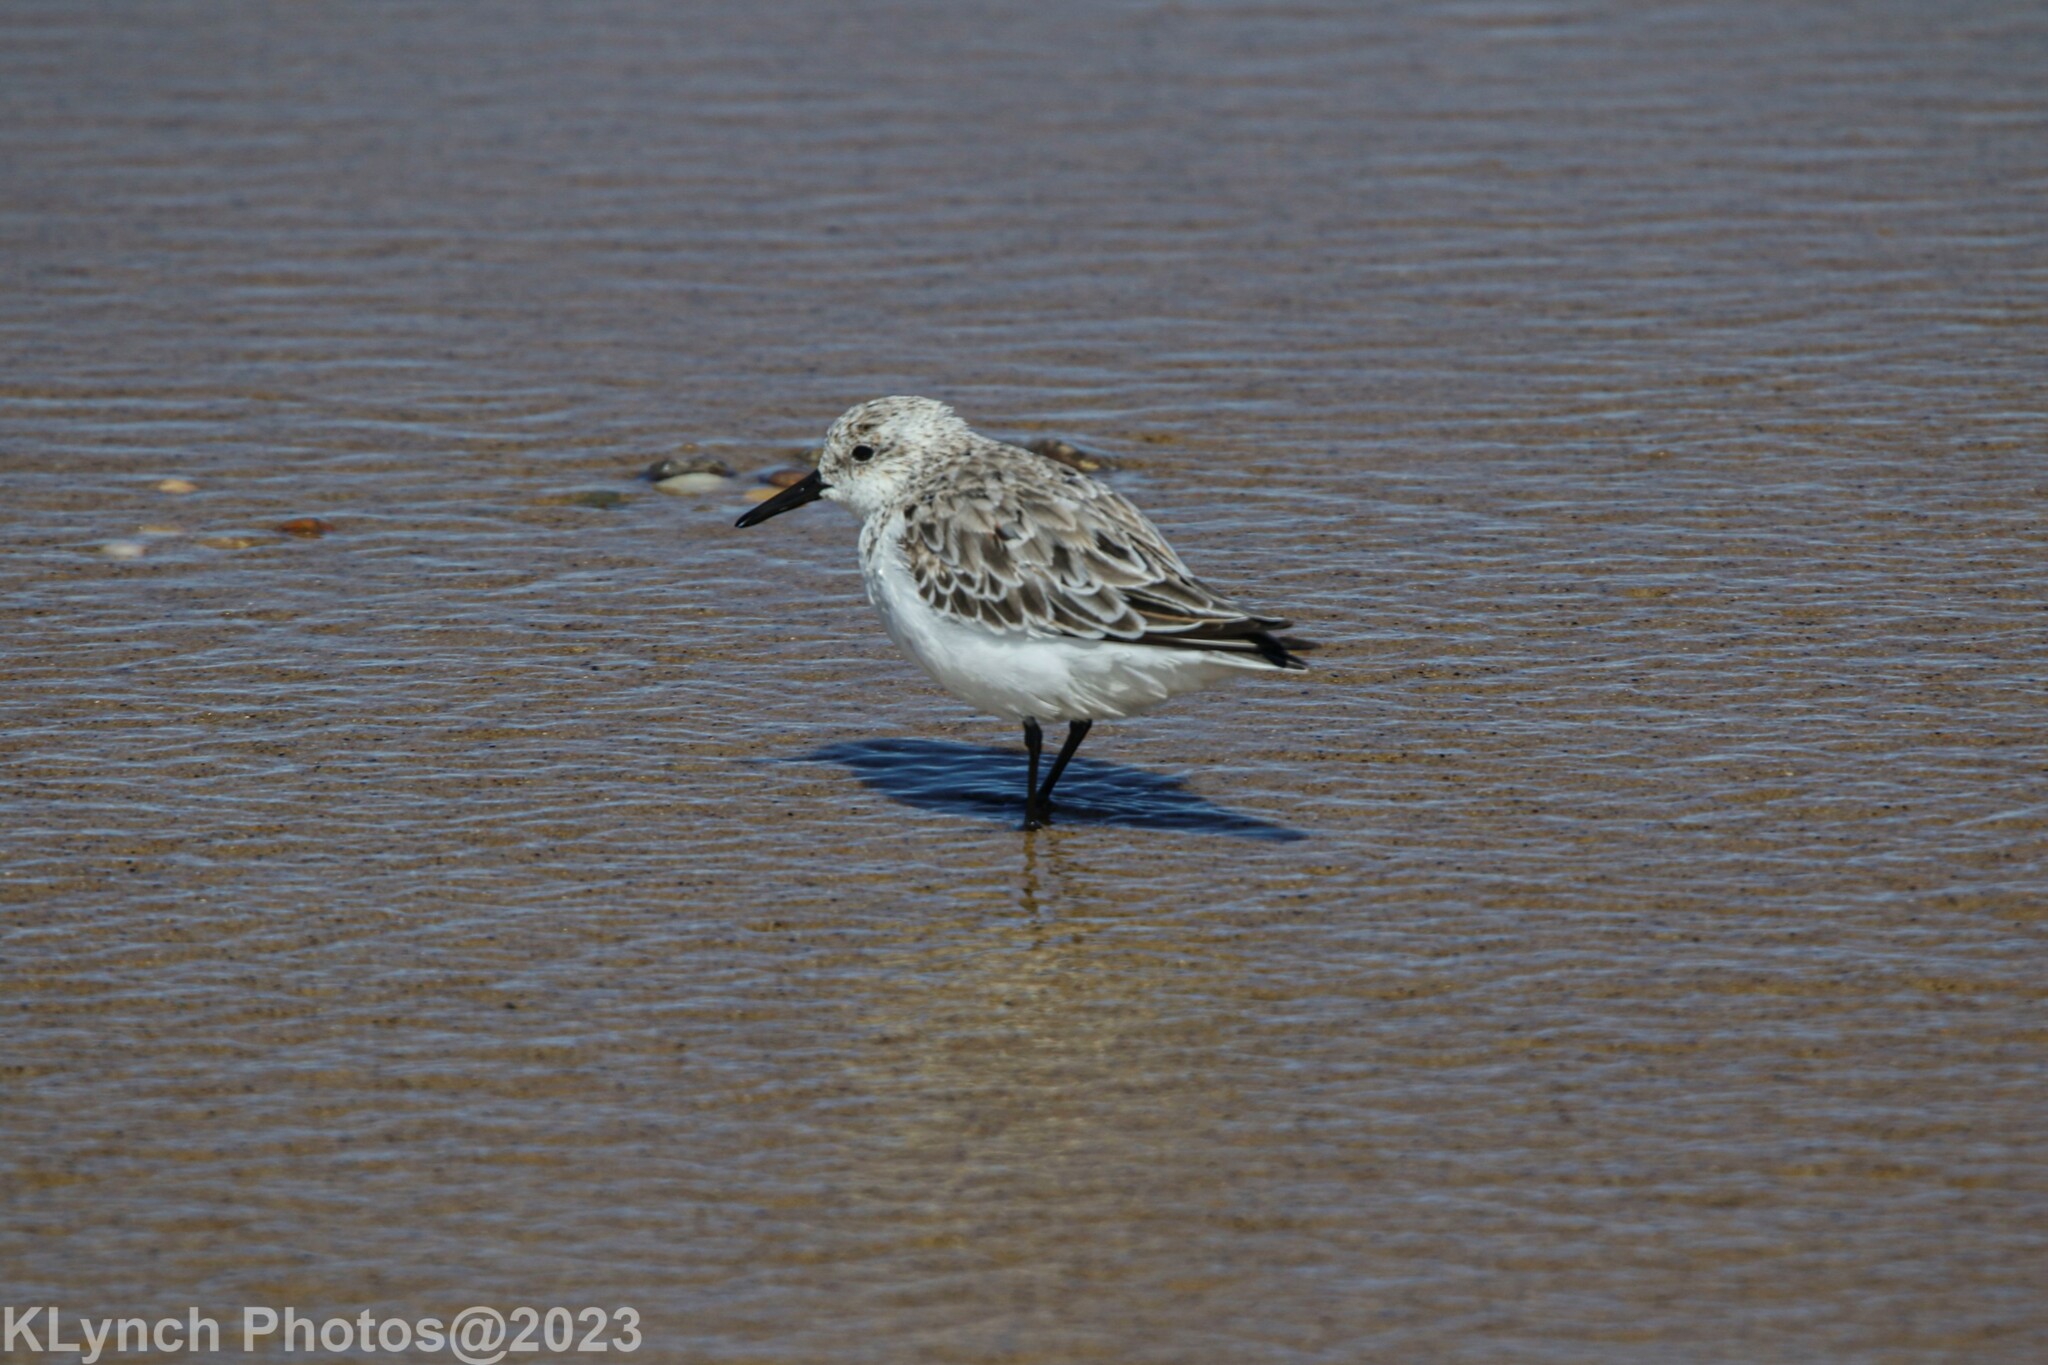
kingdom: Animalia
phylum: Chordata
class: Aves
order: Charadriiformes
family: Scolopacidae
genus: Calidris
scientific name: Calidris alba
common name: Sanderling
